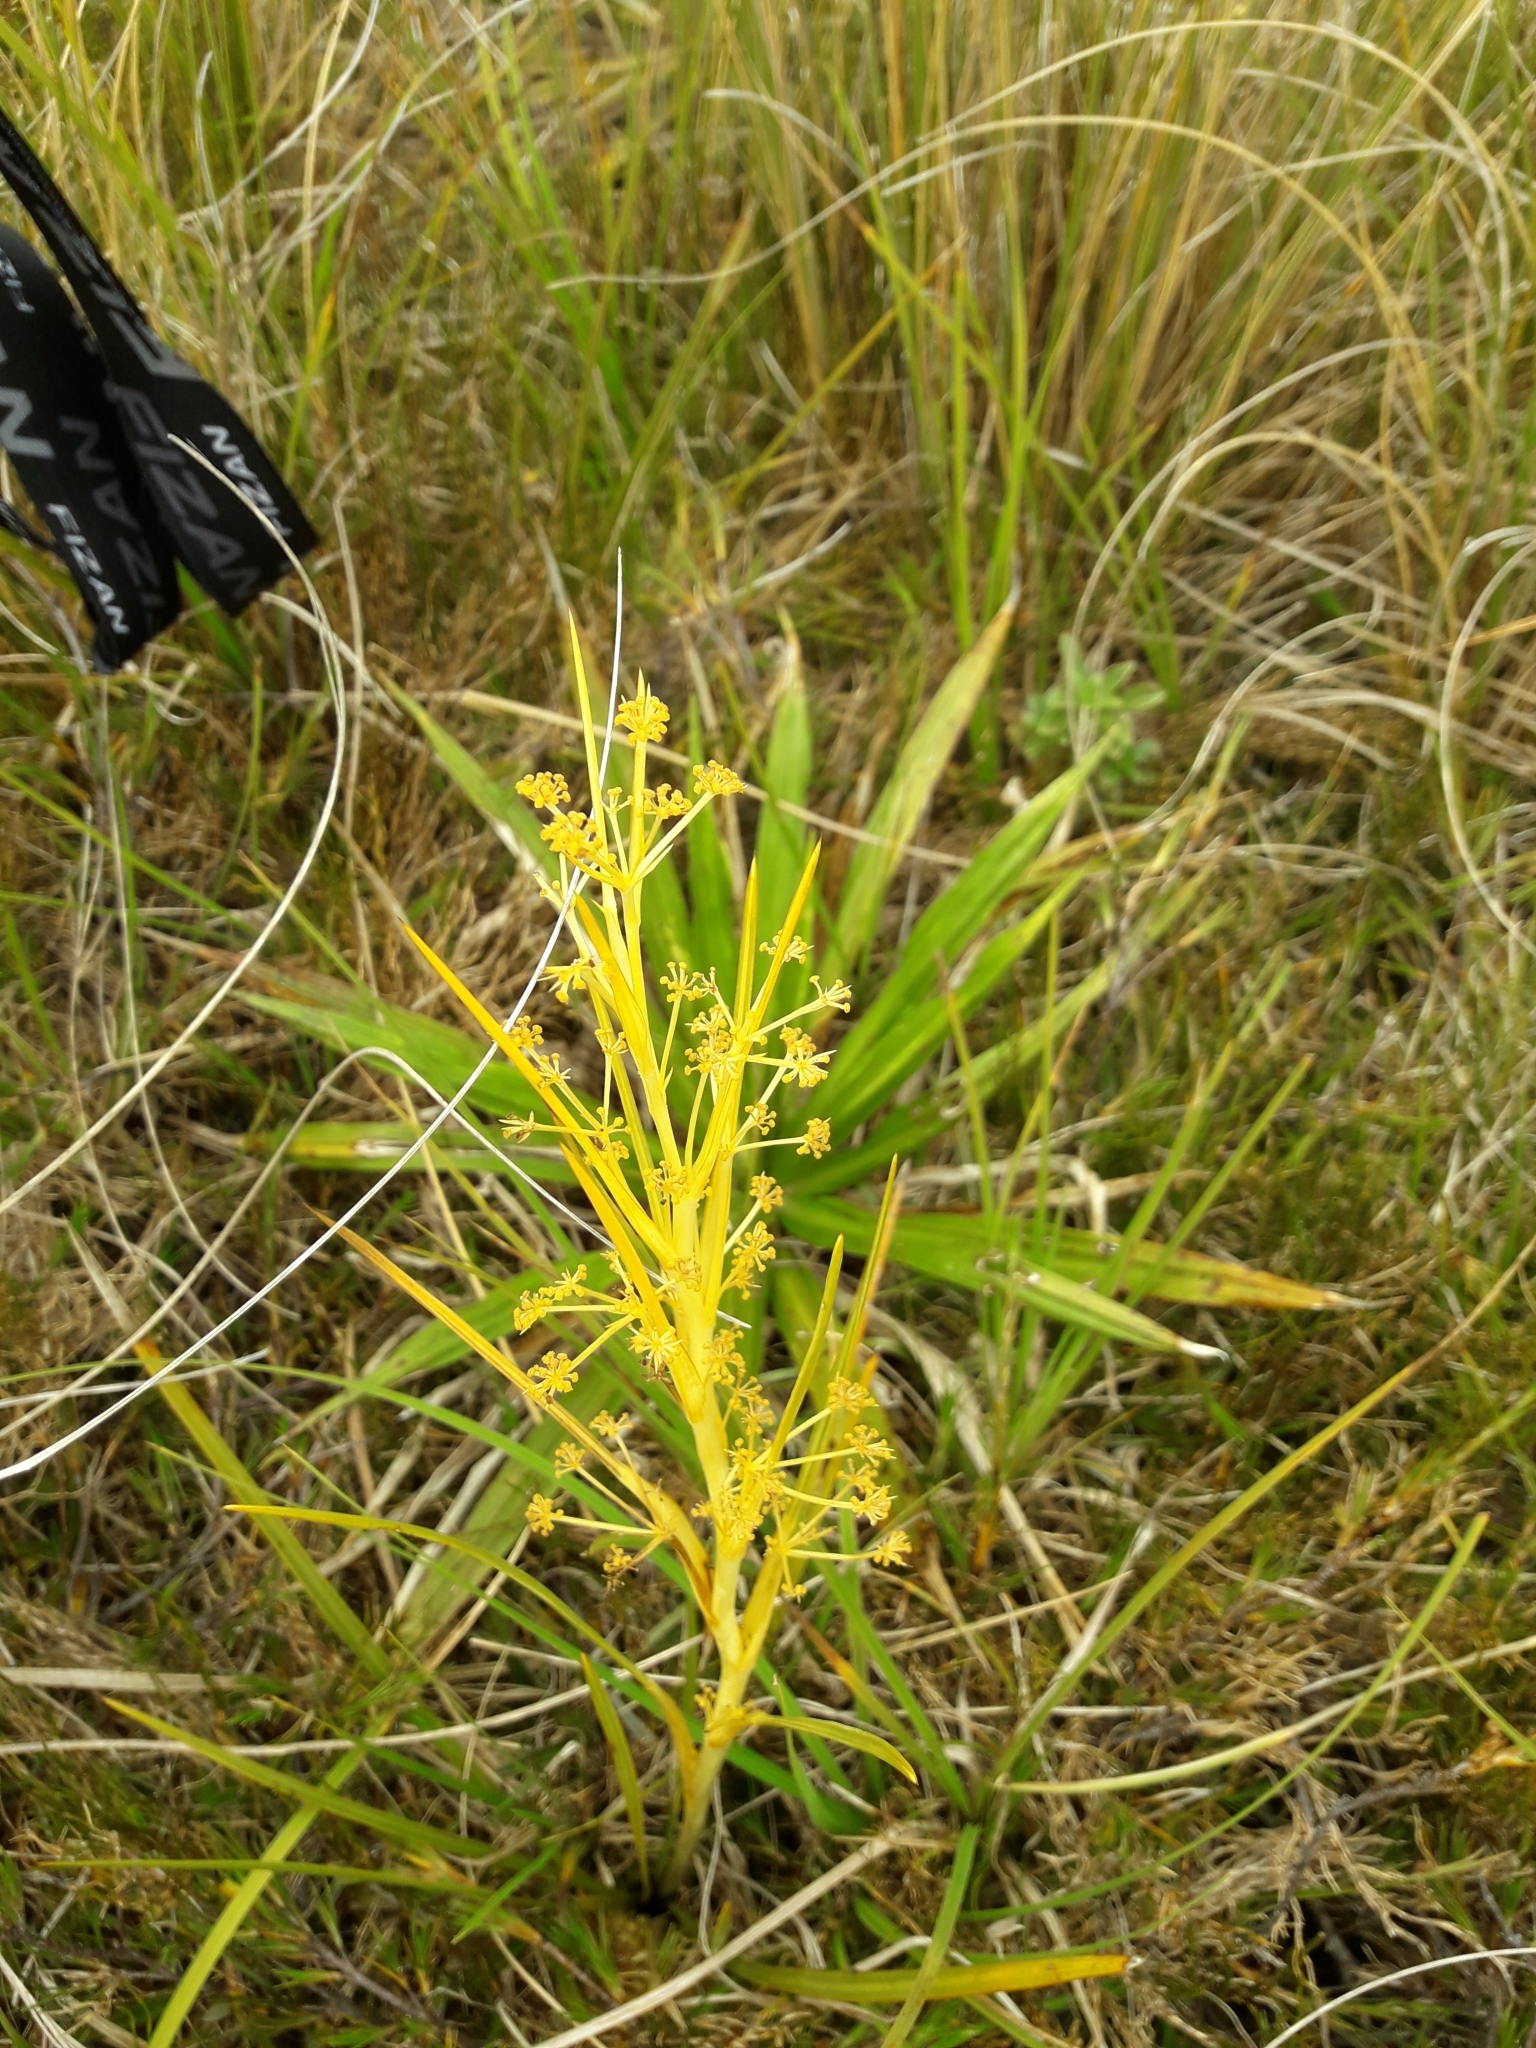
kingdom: Plantae
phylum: Tracheophyta
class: Magnoliopsida
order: Apiales
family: Apiaceae
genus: Aciphylla
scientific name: Aciphylla anomala
